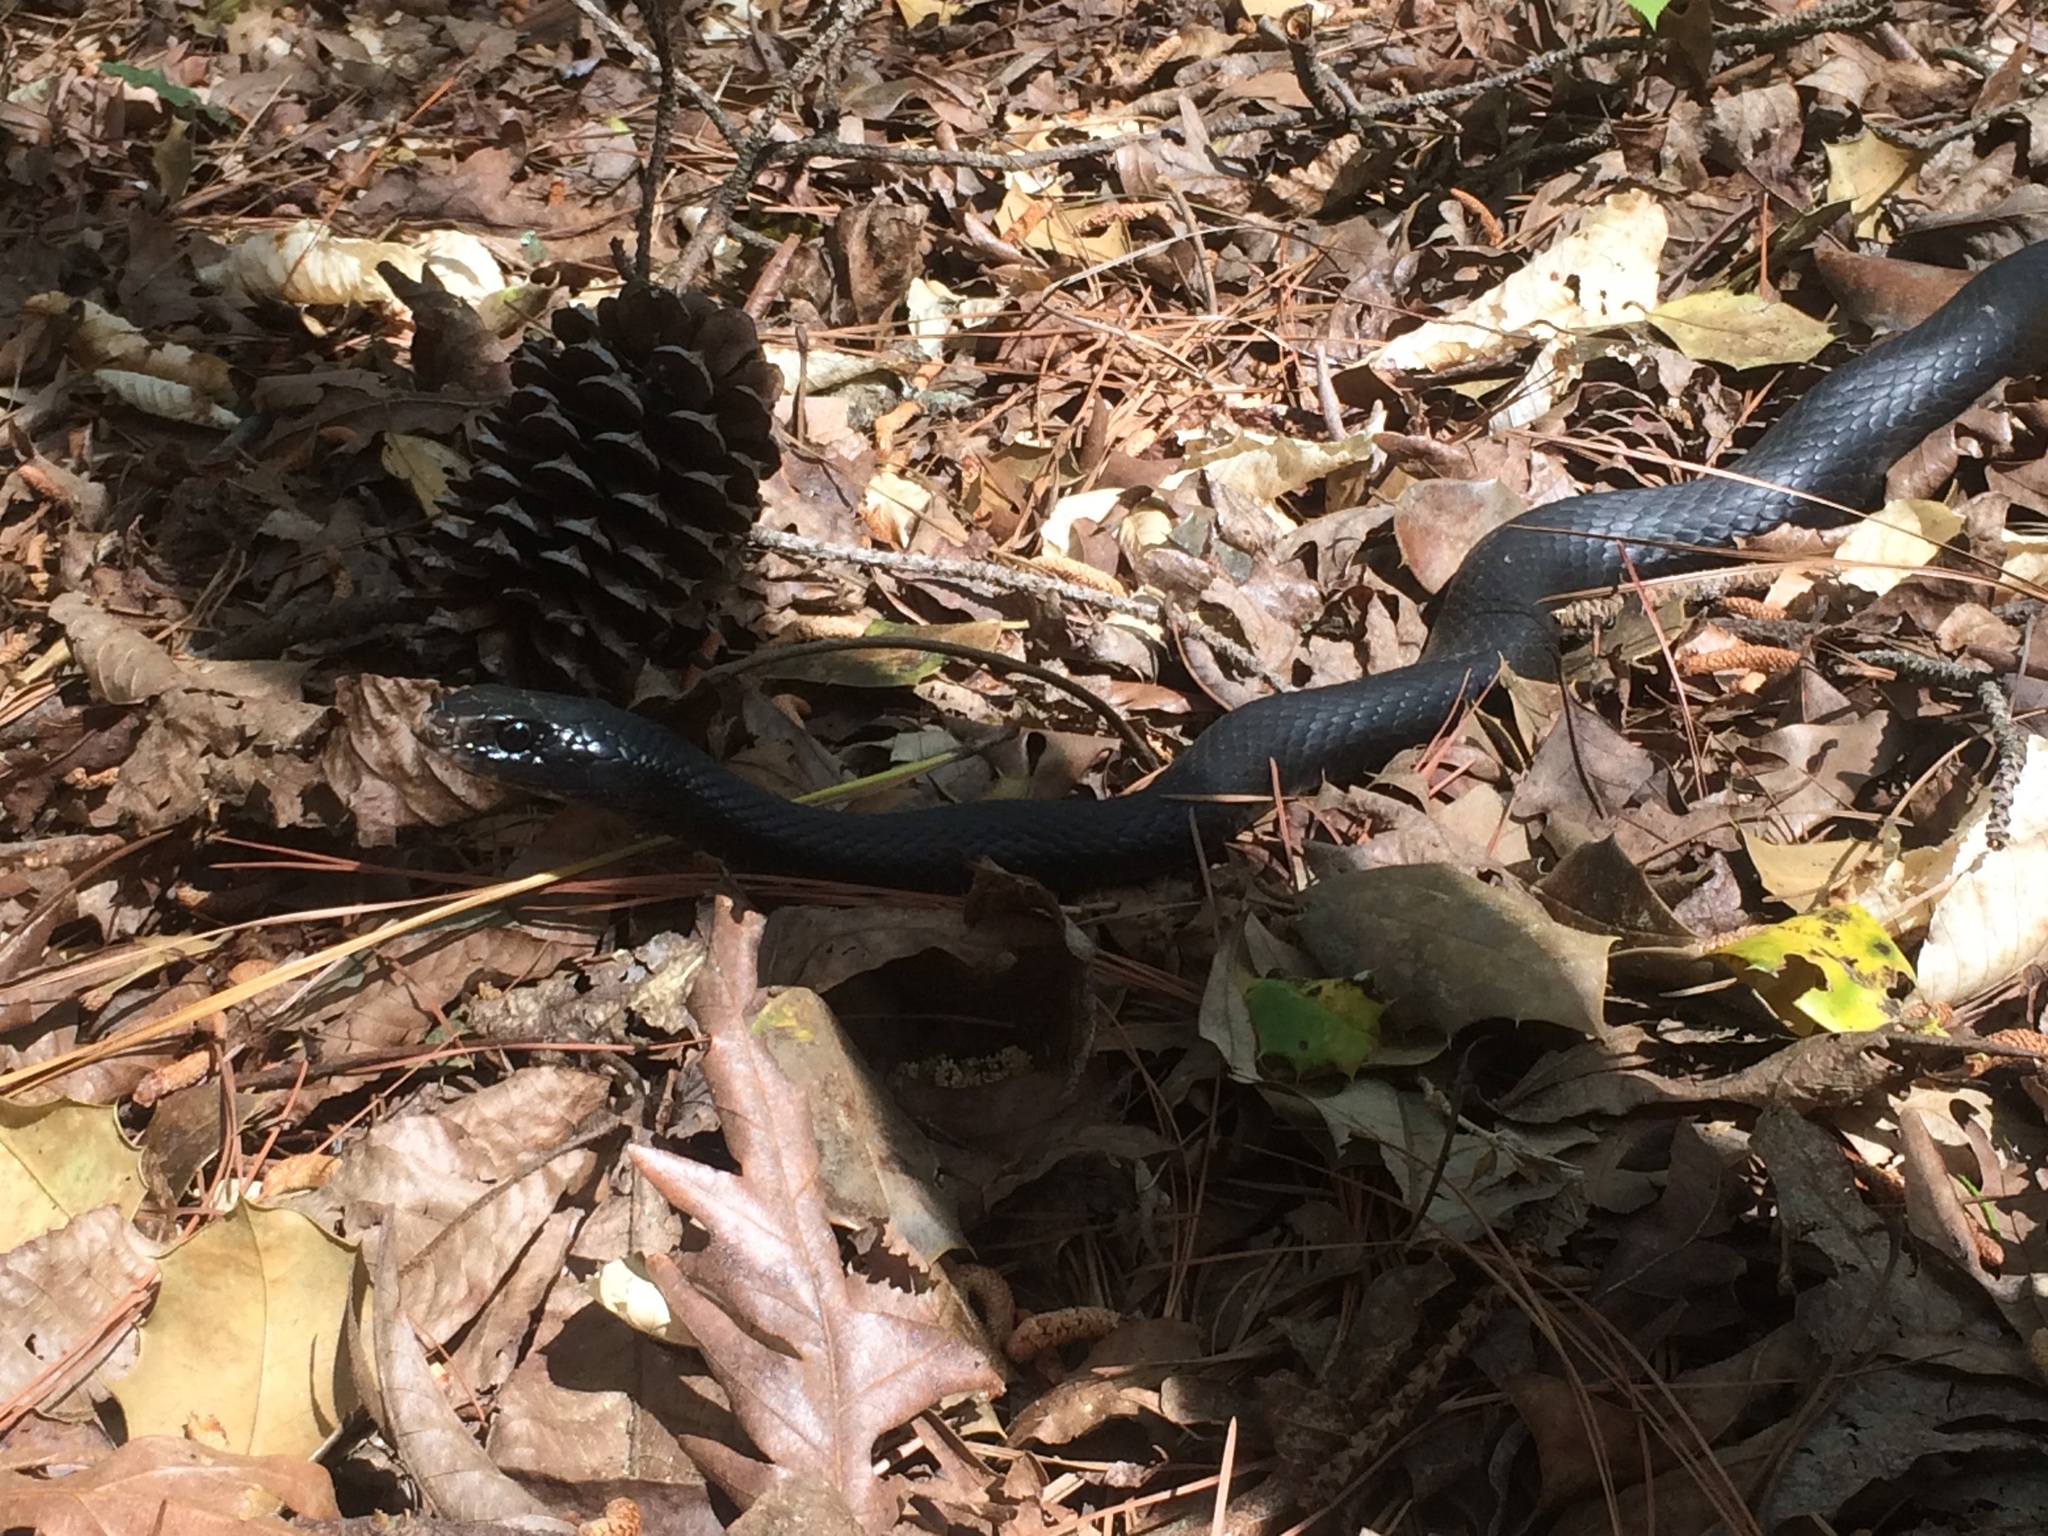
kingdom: Animalia
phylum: Chordata
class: Squamata
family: Colubridae
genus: Coluber
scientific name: Coluber constrictor
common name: Eastern racer
